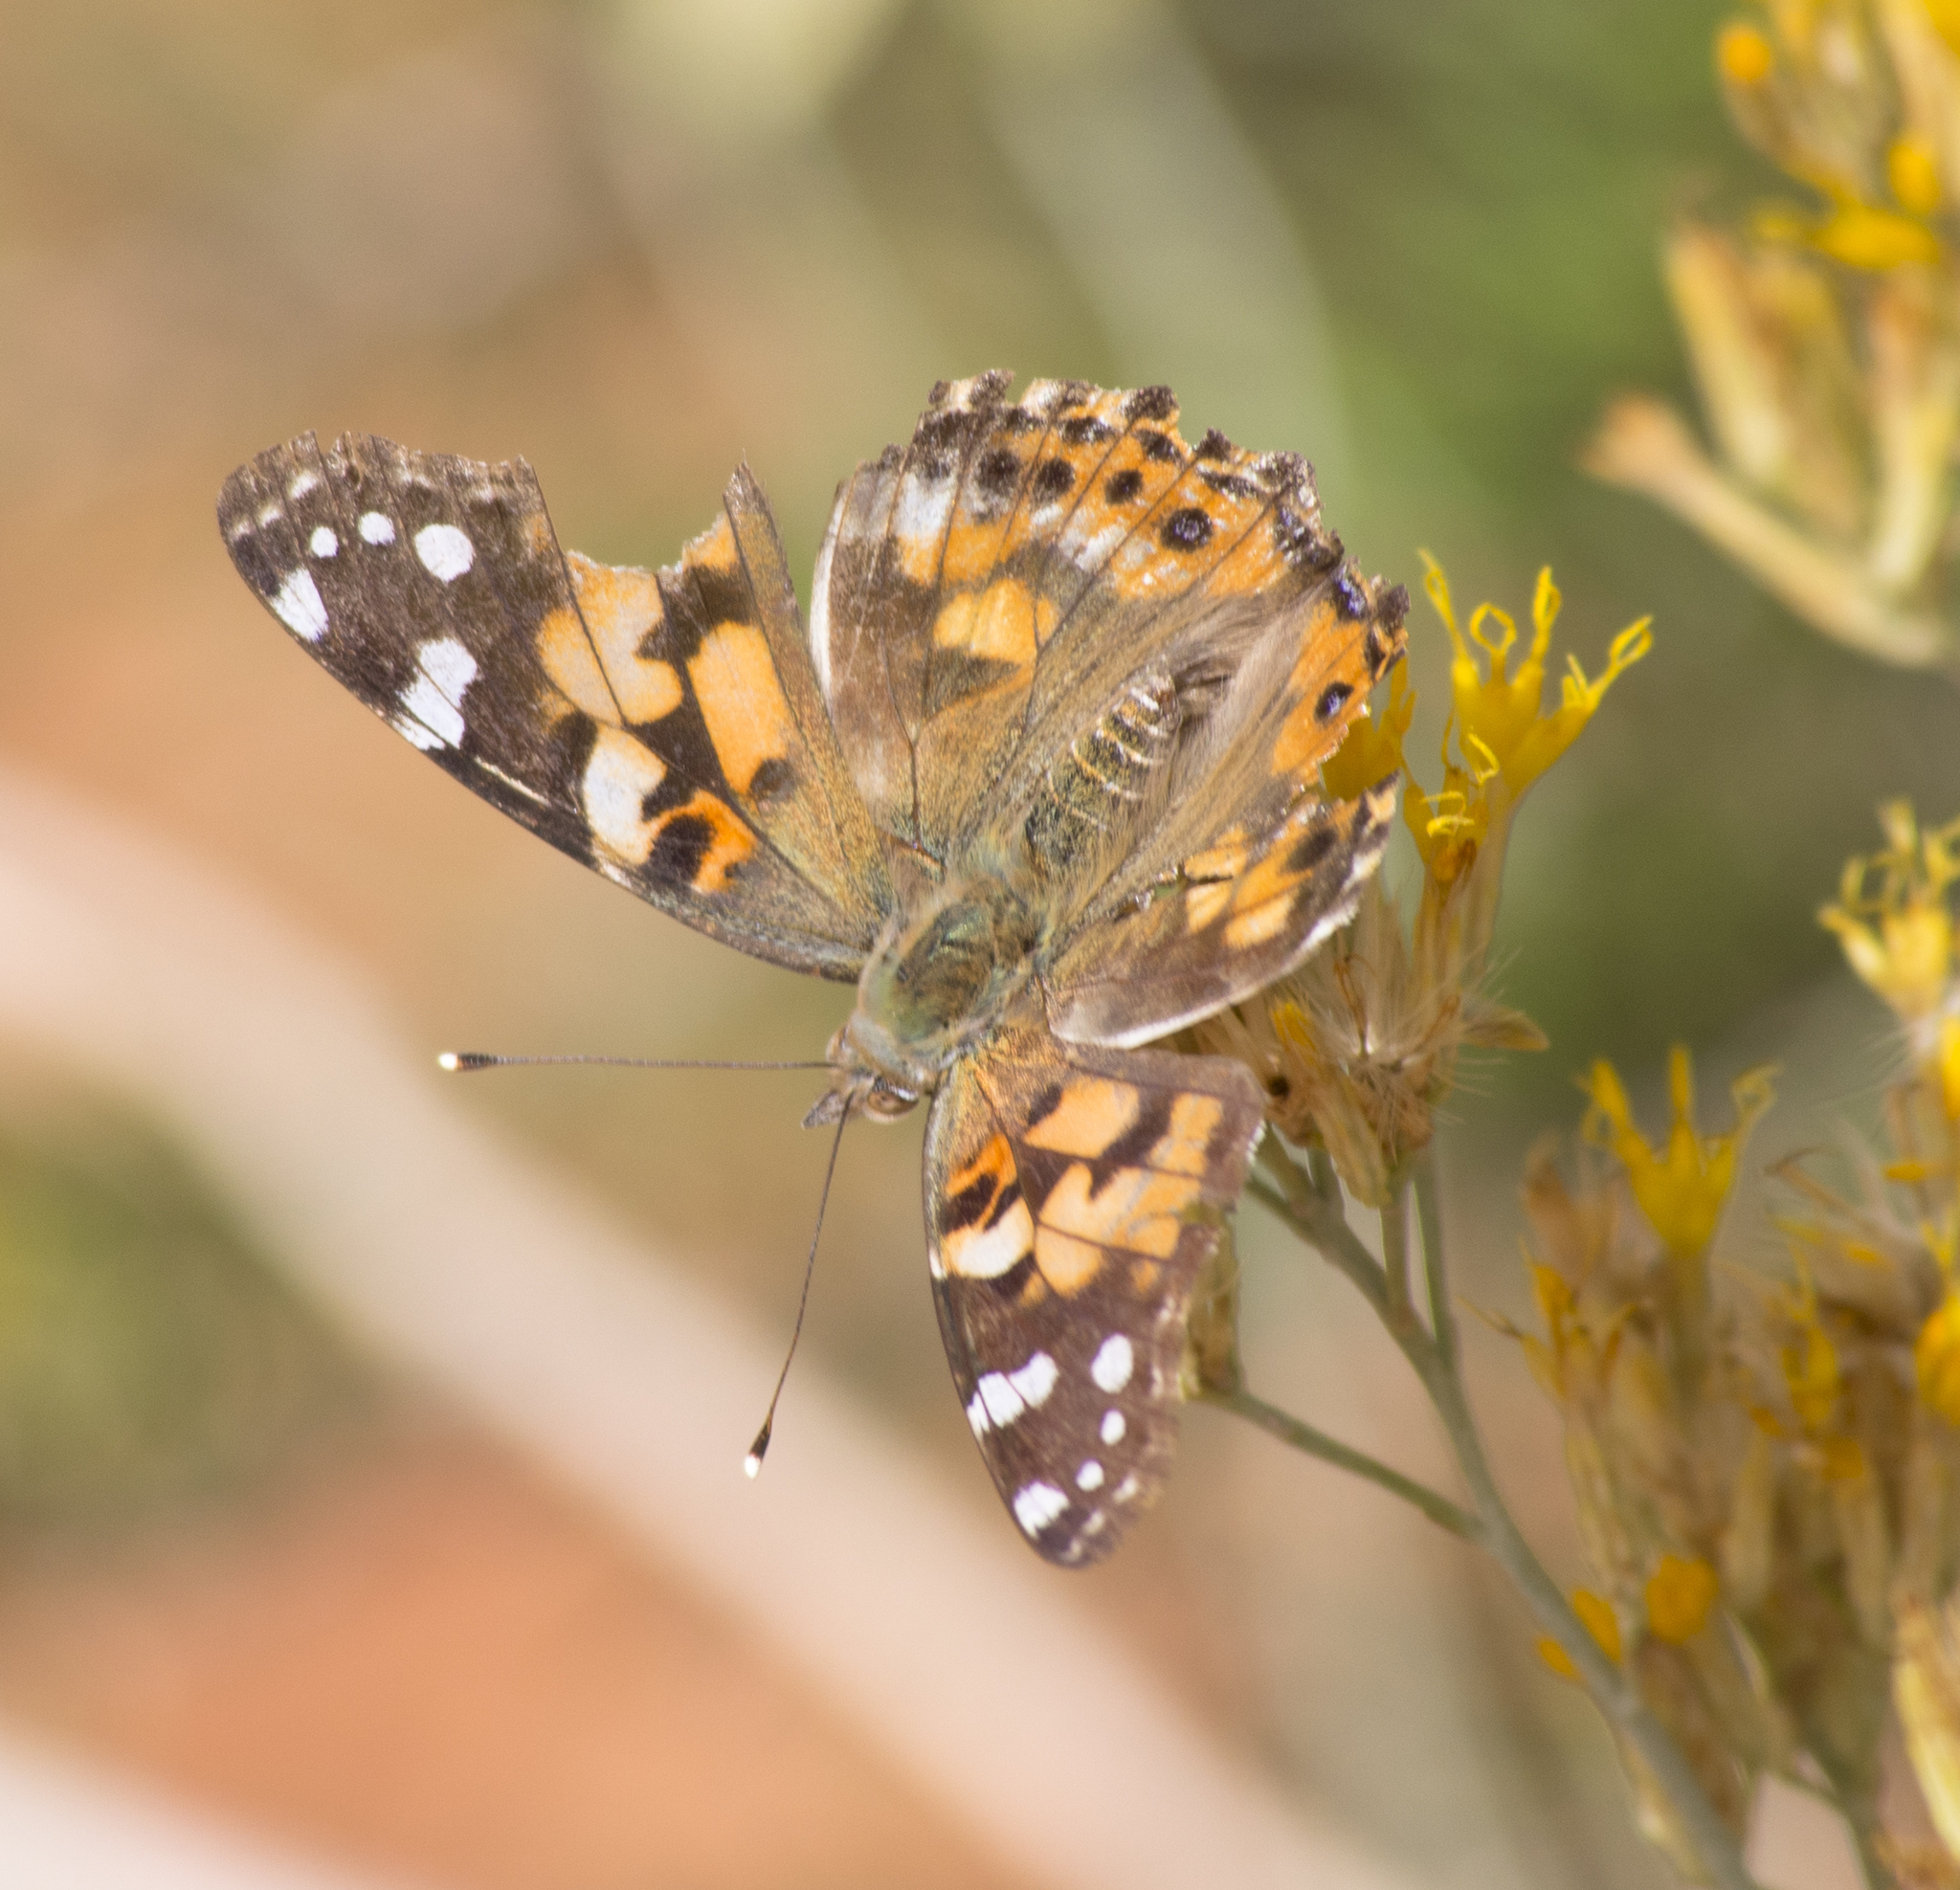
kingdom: Animalia
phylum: Arthropoda
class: Insecta
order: Lepidoptera
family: Nymphalidae
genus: Vanessa
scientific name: Vanessa cardui
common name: Painted lady
